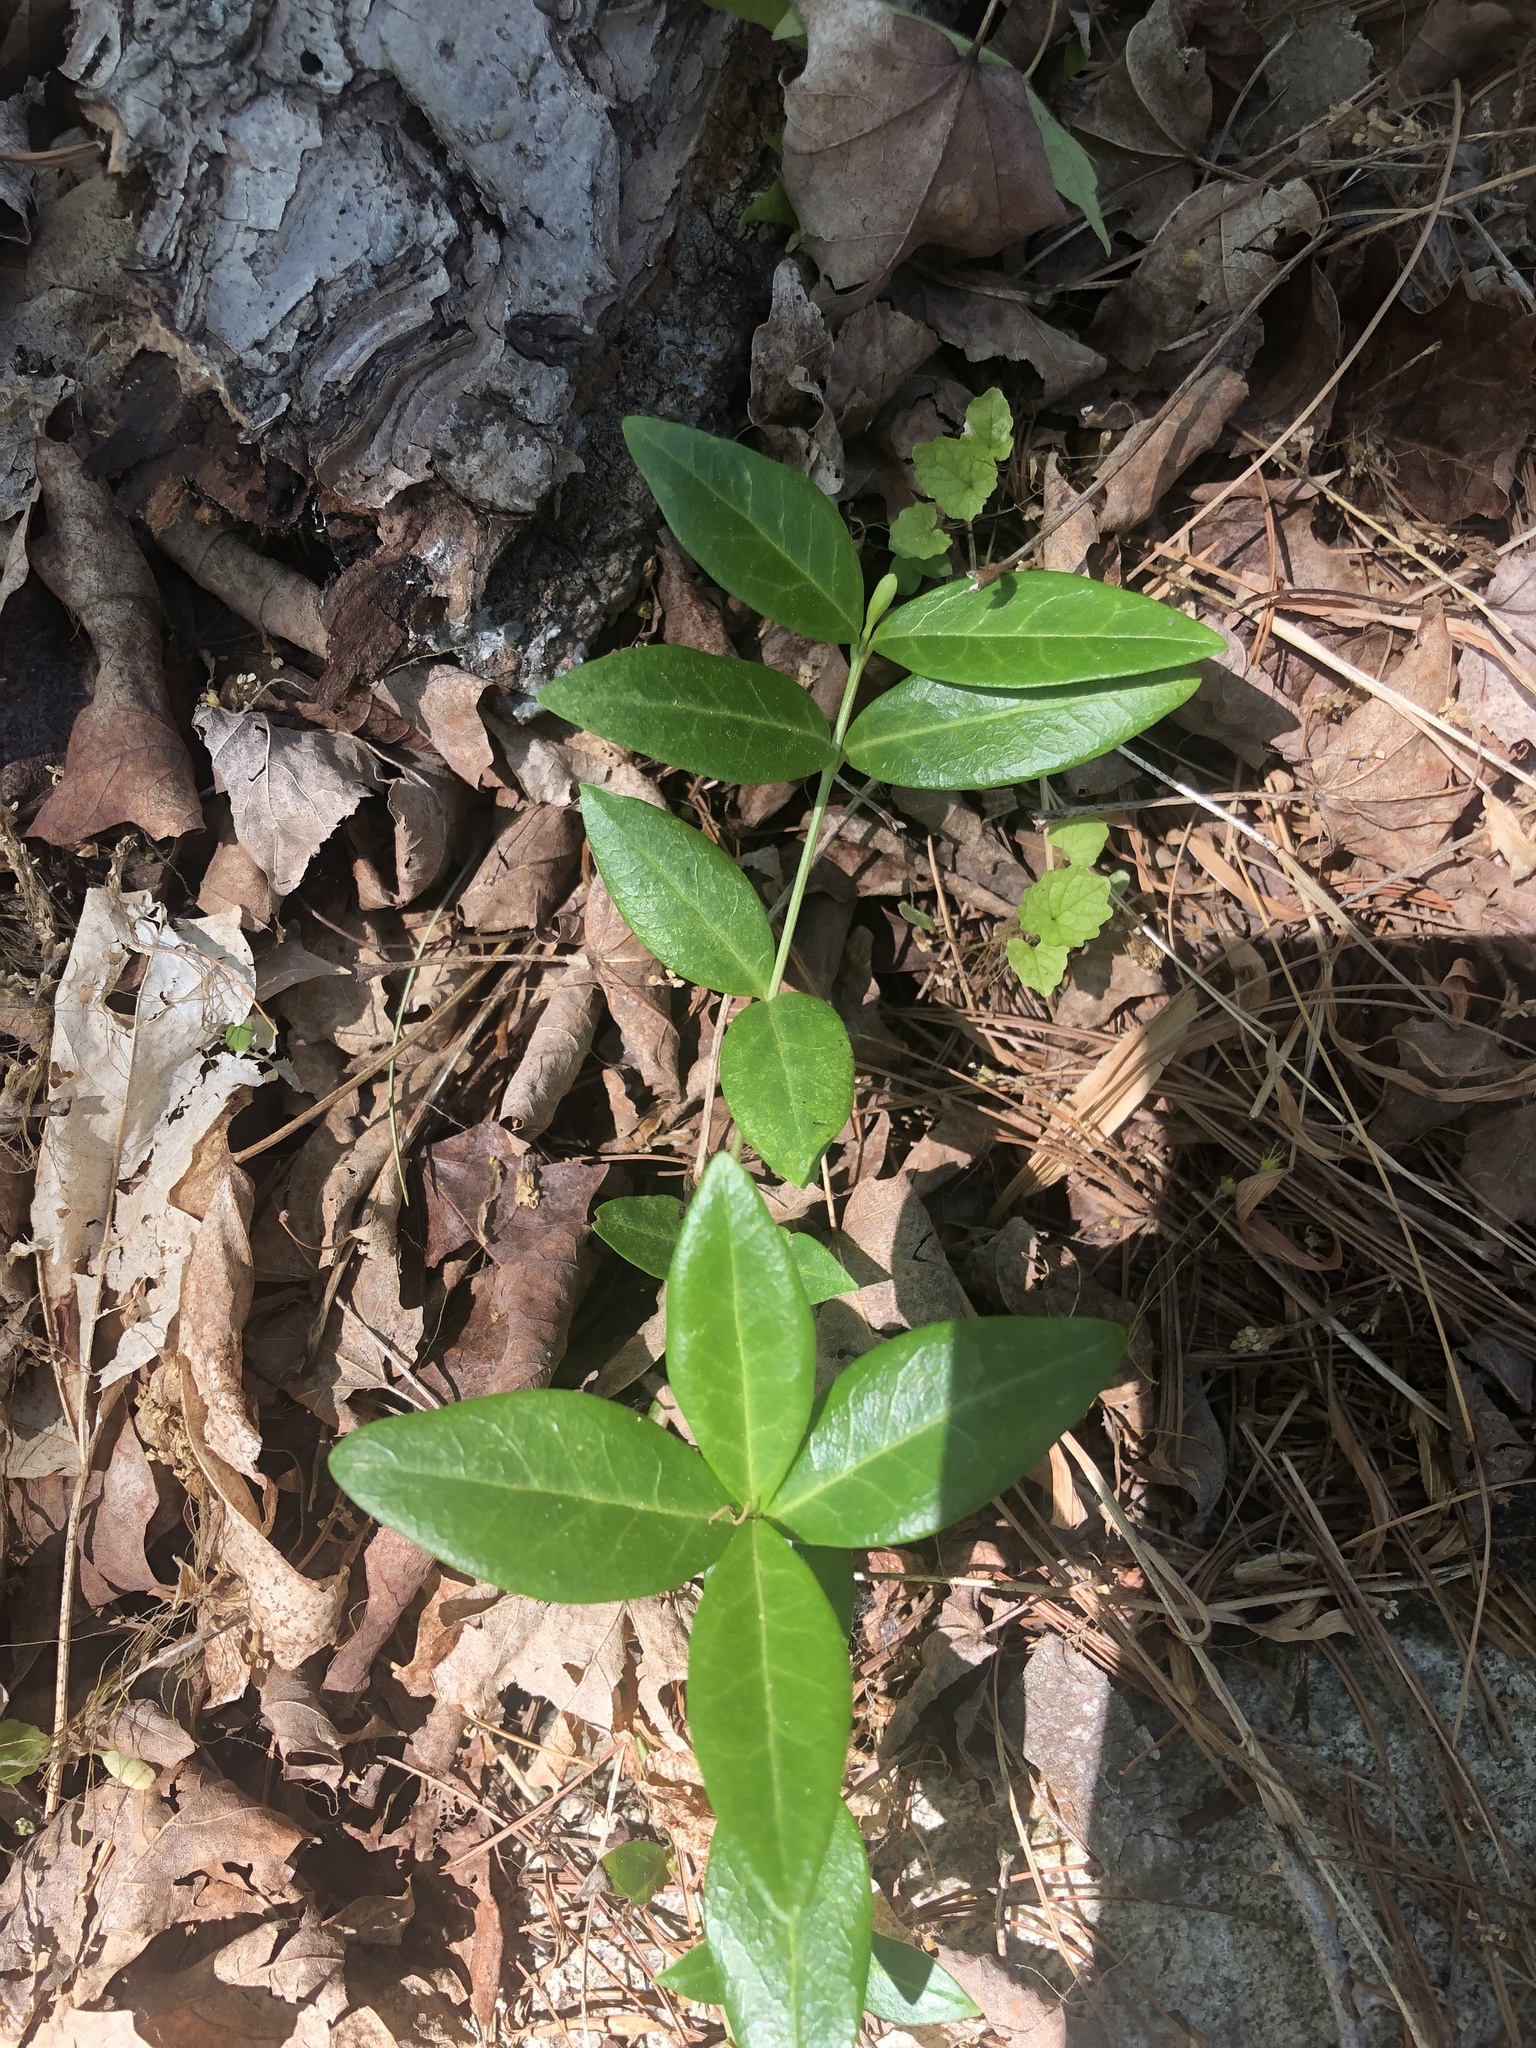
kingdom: Plantae
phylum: Tracheophyta
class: Magnoliopsida
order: Gentianales
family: Apocynaceae
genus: Vinca
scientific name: Vinca minor
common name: Lesser periwinkle
